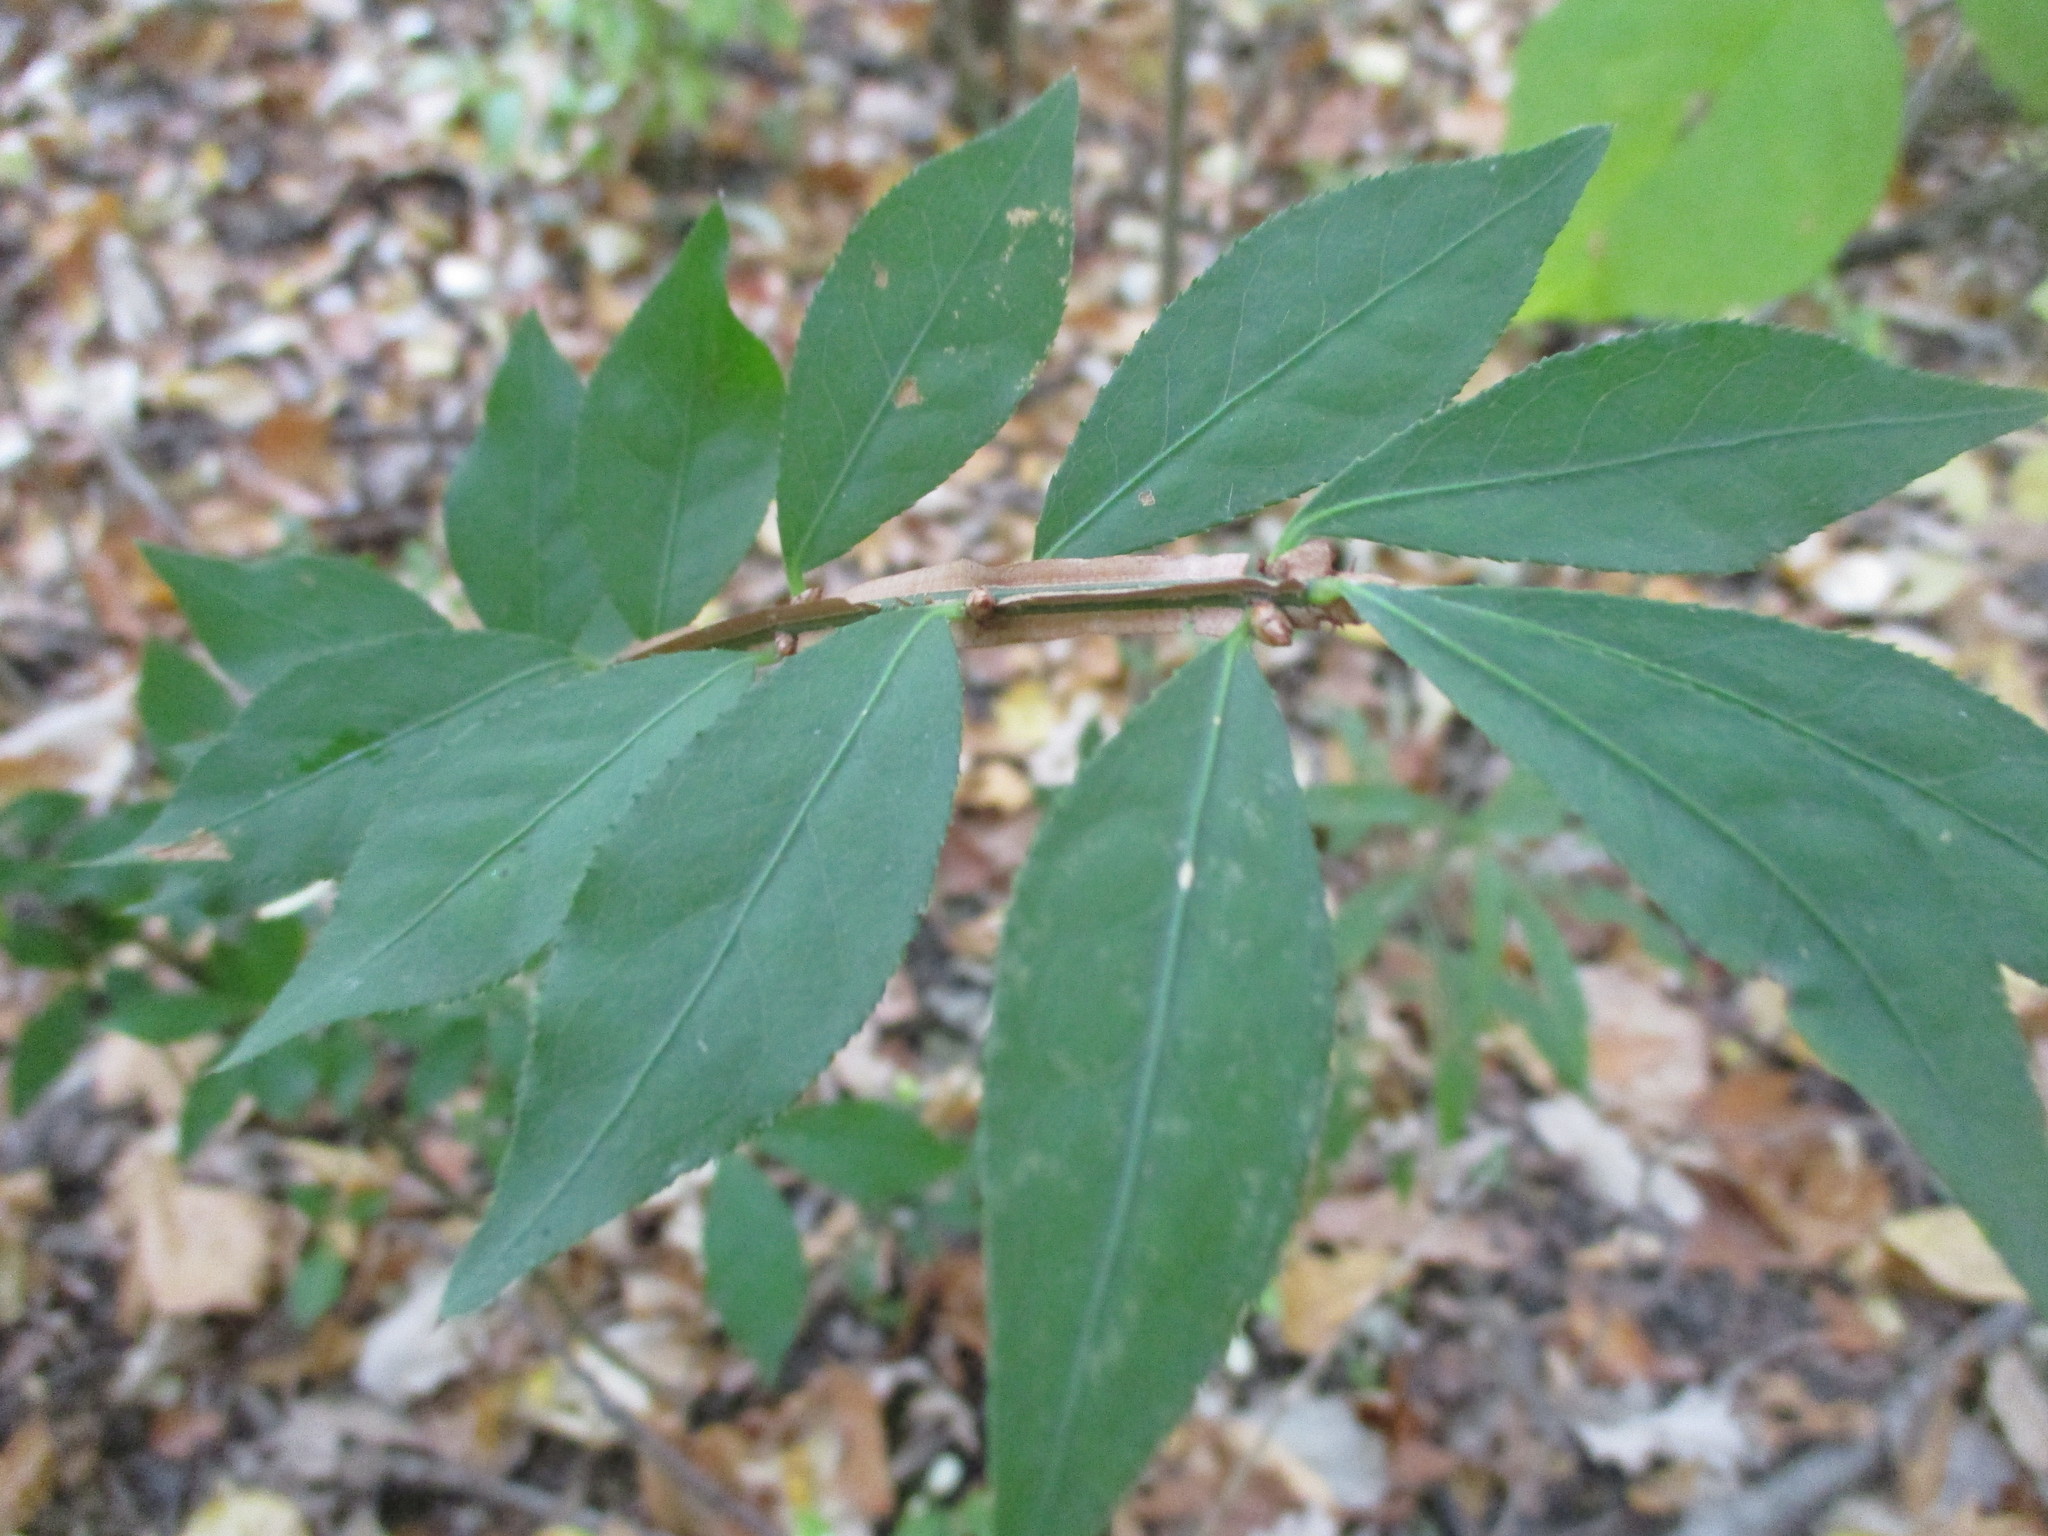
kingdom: Plantae
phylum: Tracheophyta
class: Magnoliopsida
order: Celastrales
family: Celastraceae
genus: Euonymus
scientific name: Euonymus alatus
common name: Winged euonymus
